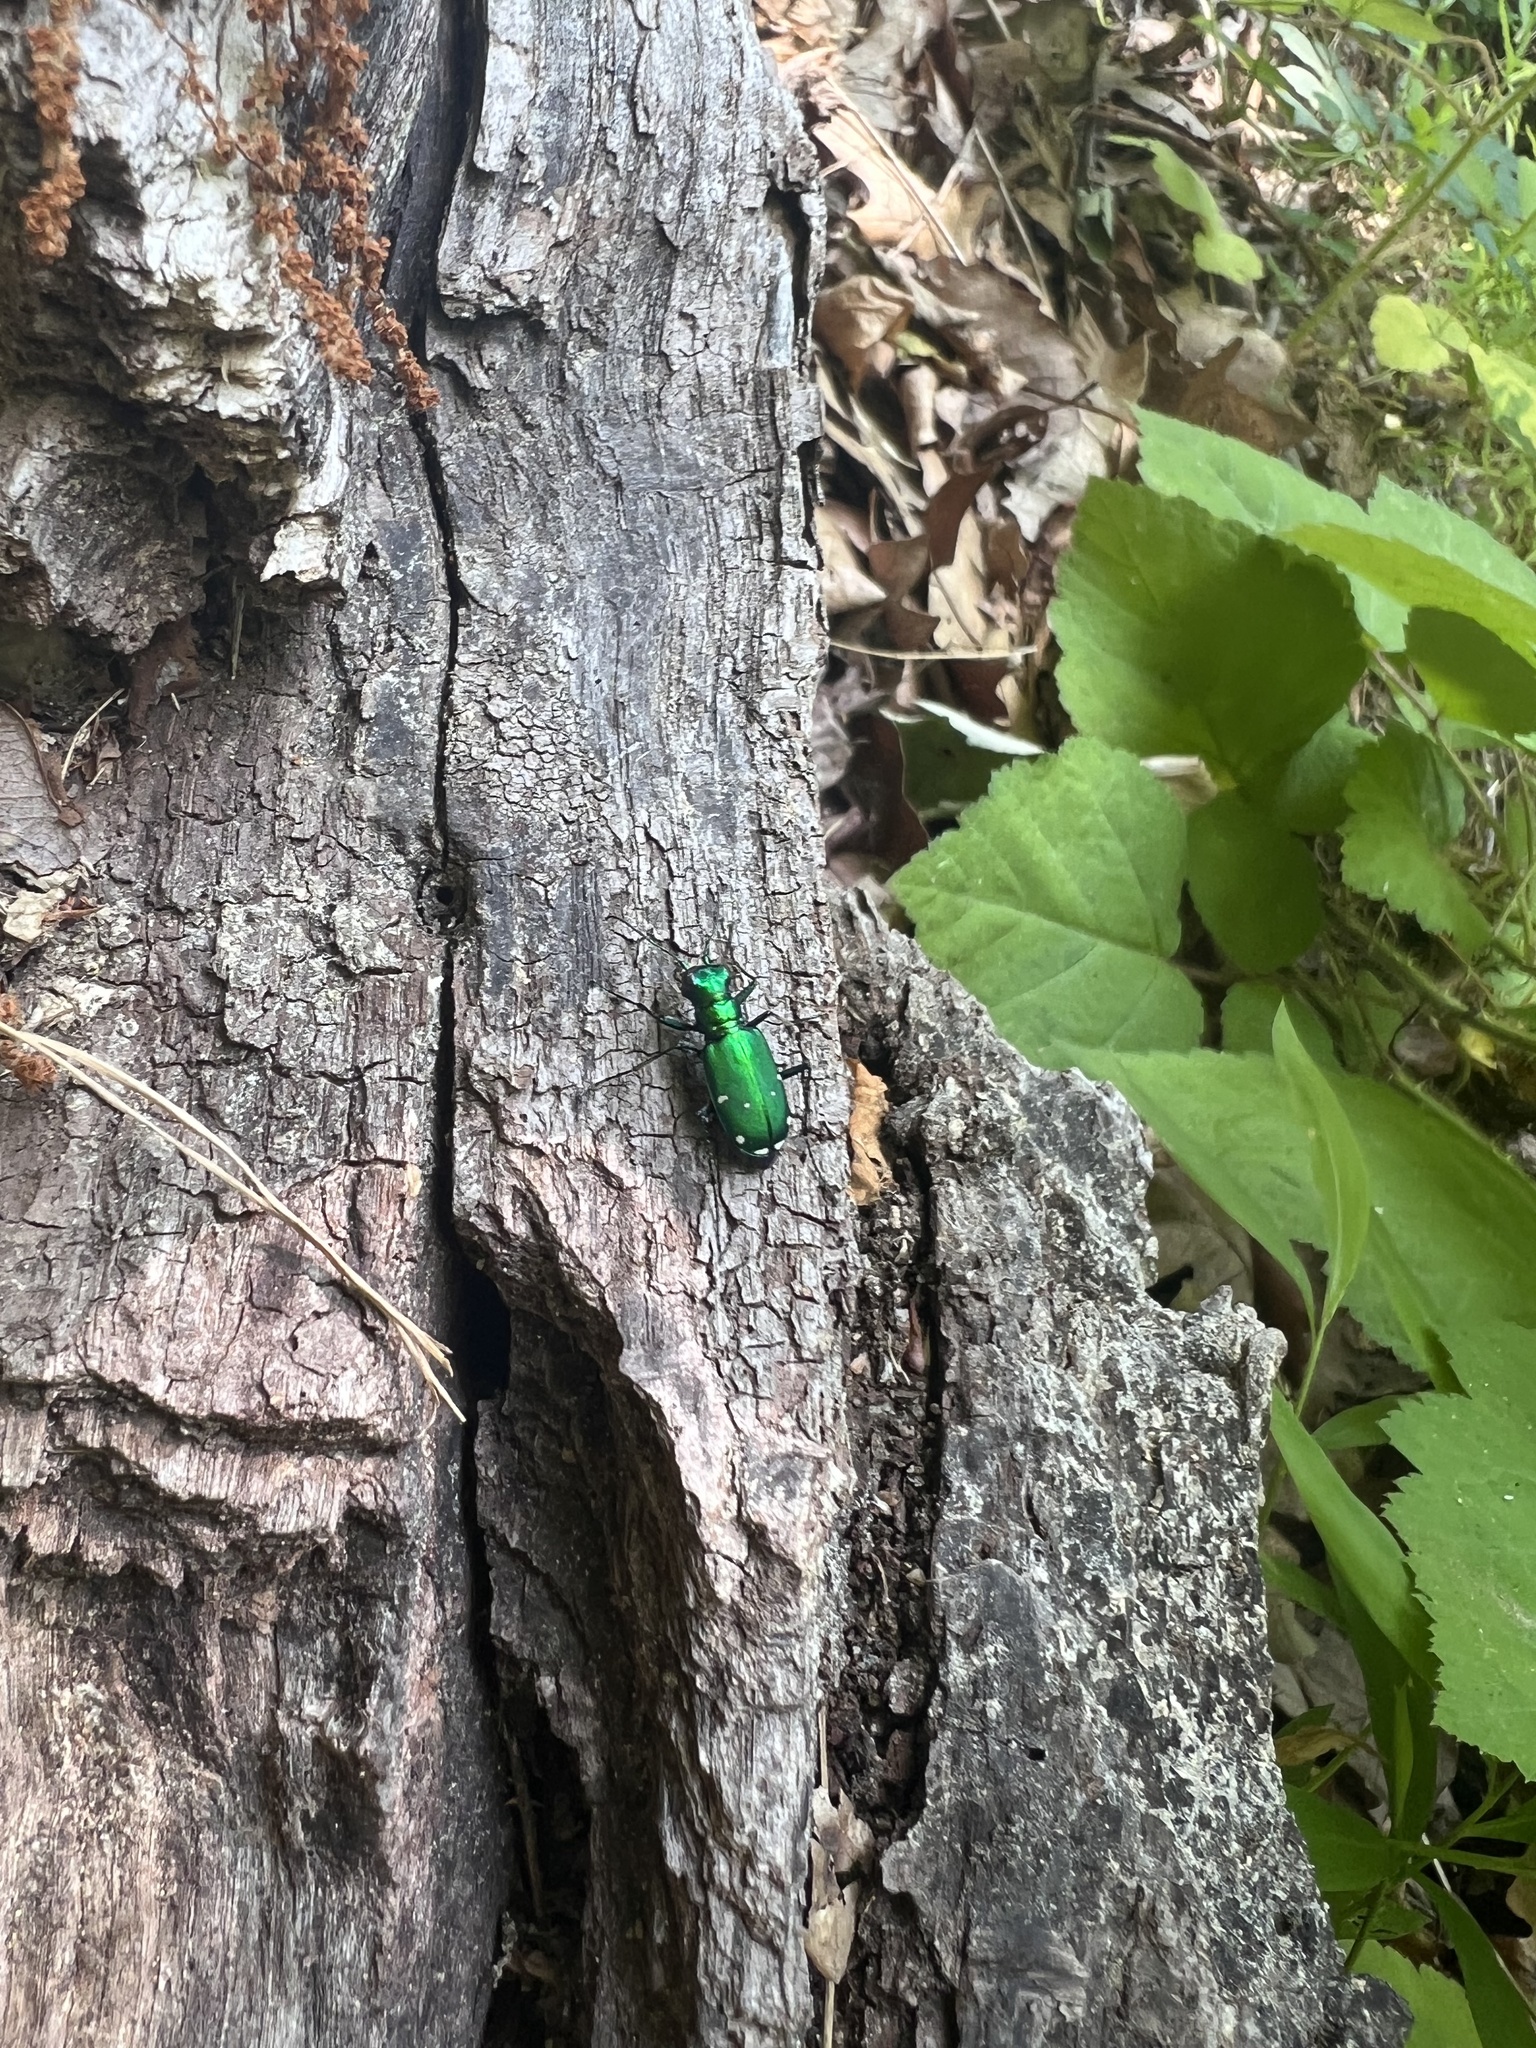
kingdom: Animalia
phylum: Arthropoda
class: Insecta
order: Coleoptera
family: Carabidae
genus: Cicindela
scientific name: Cicindela sexguttata
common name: Six-spotted tiger beetle
